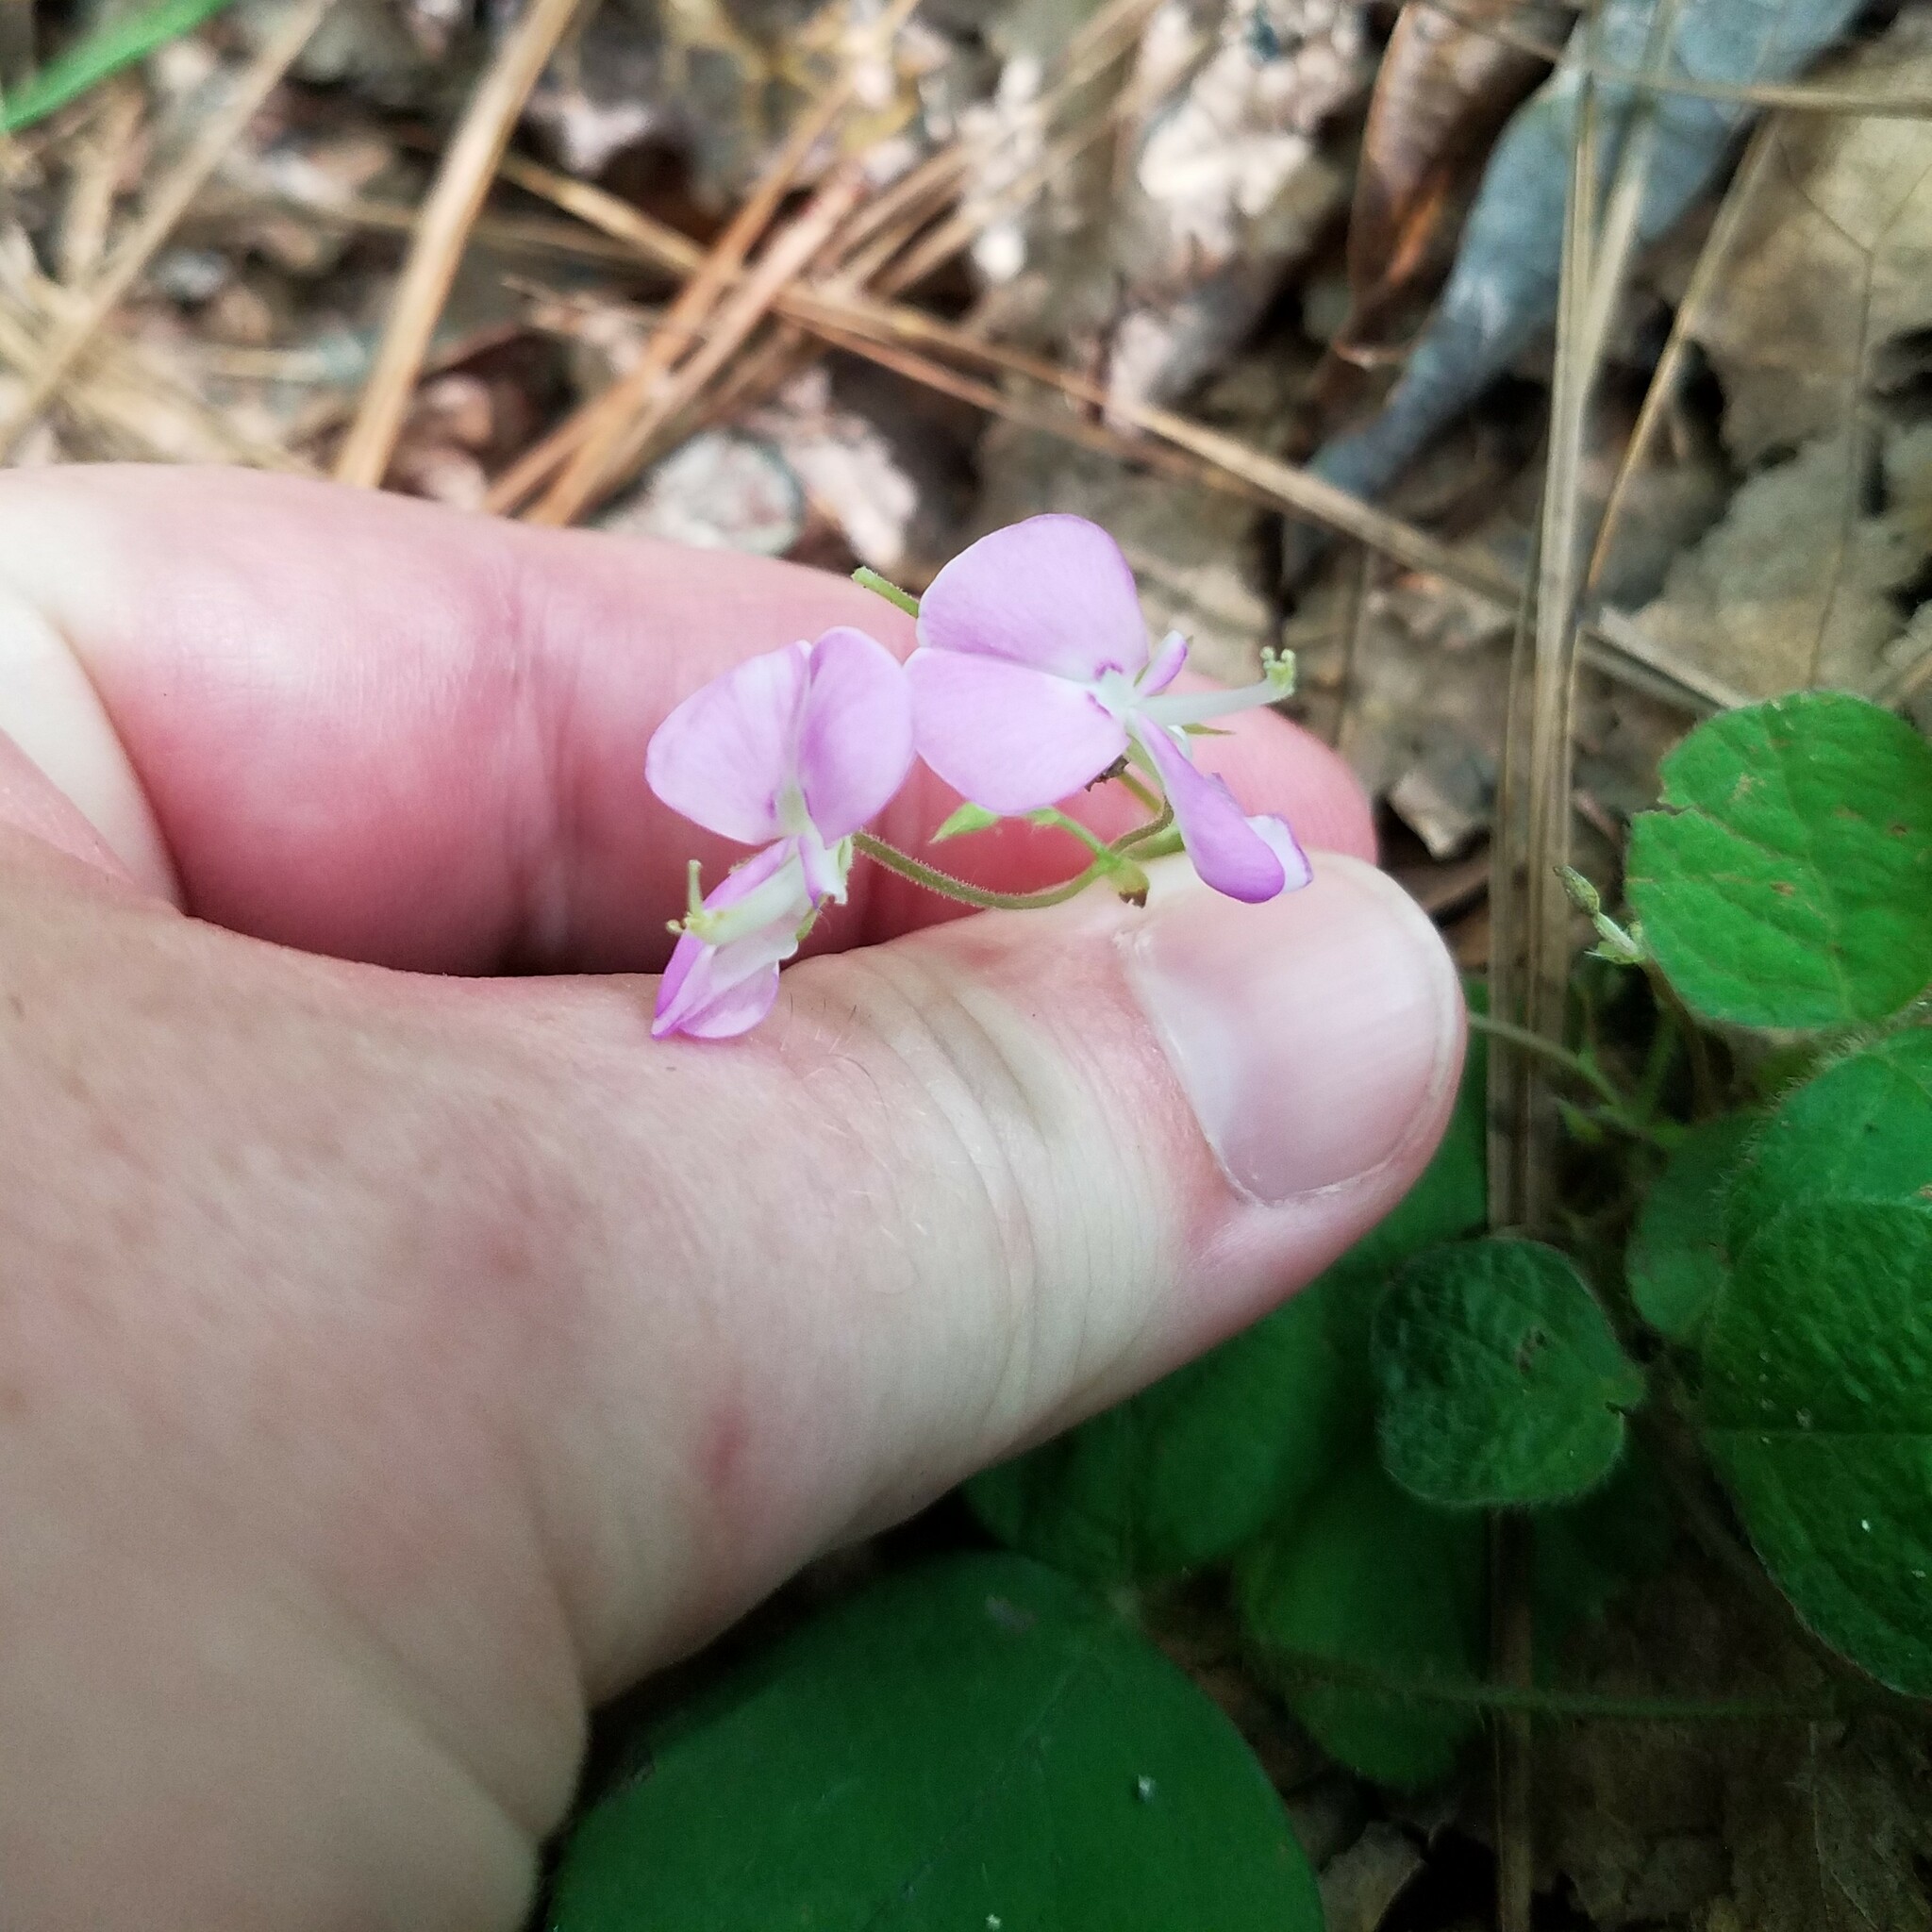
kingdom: Plantae
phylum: Tracheophyta
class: Magnoliopsida
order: Fabales
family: Fabaceae
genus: Desmodium
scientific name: Desmodium rotundifolium
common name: Dollarleaf
